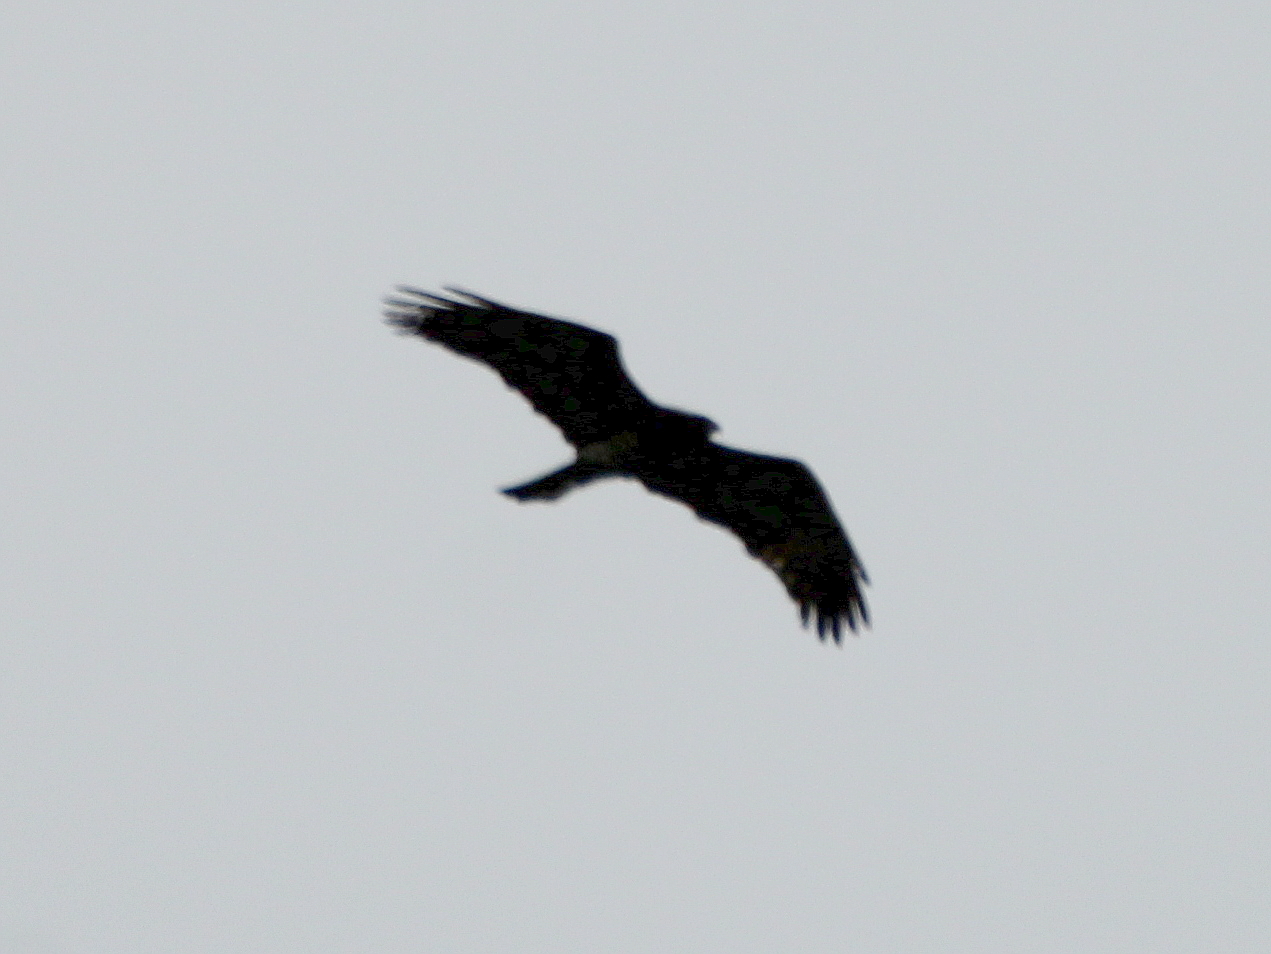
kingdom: Animalia
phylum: Chordata
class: Aves
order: Accipitriformes
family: Accipitridae
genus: Circaetus
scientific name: Circaetus gallicus
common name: Short-toed snake eagle
